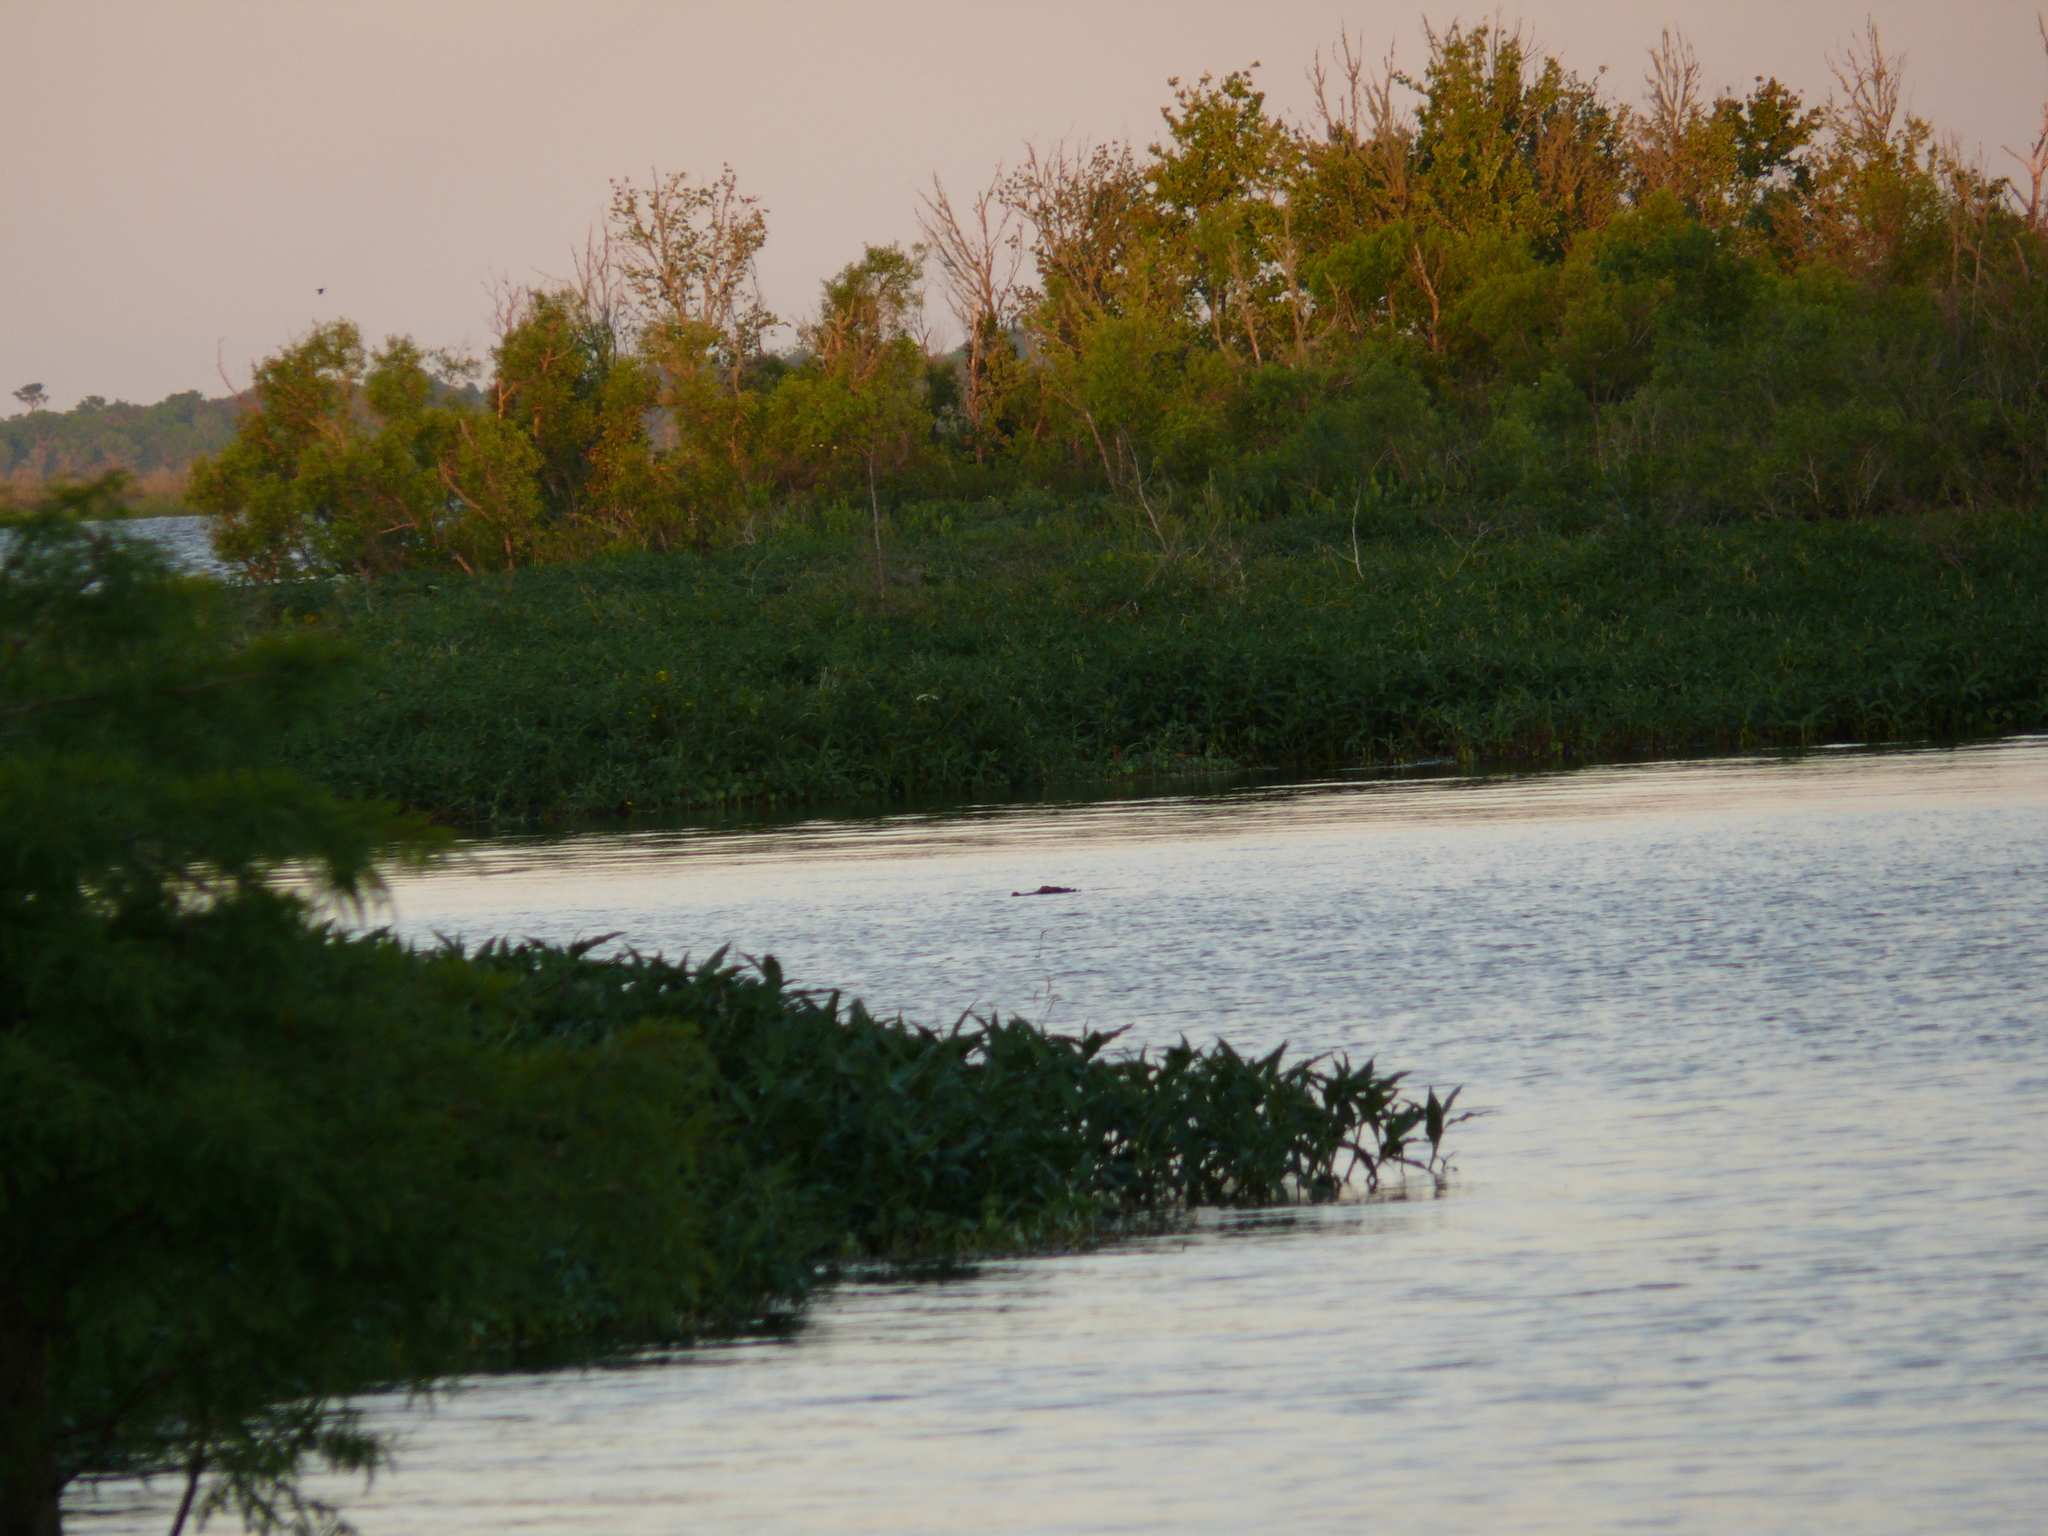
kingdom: Animalia
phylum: Chordata
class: Crocodylia
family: Alligatoridae
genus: Alligator
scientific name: Alligator mississippiensis
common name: American alligator
